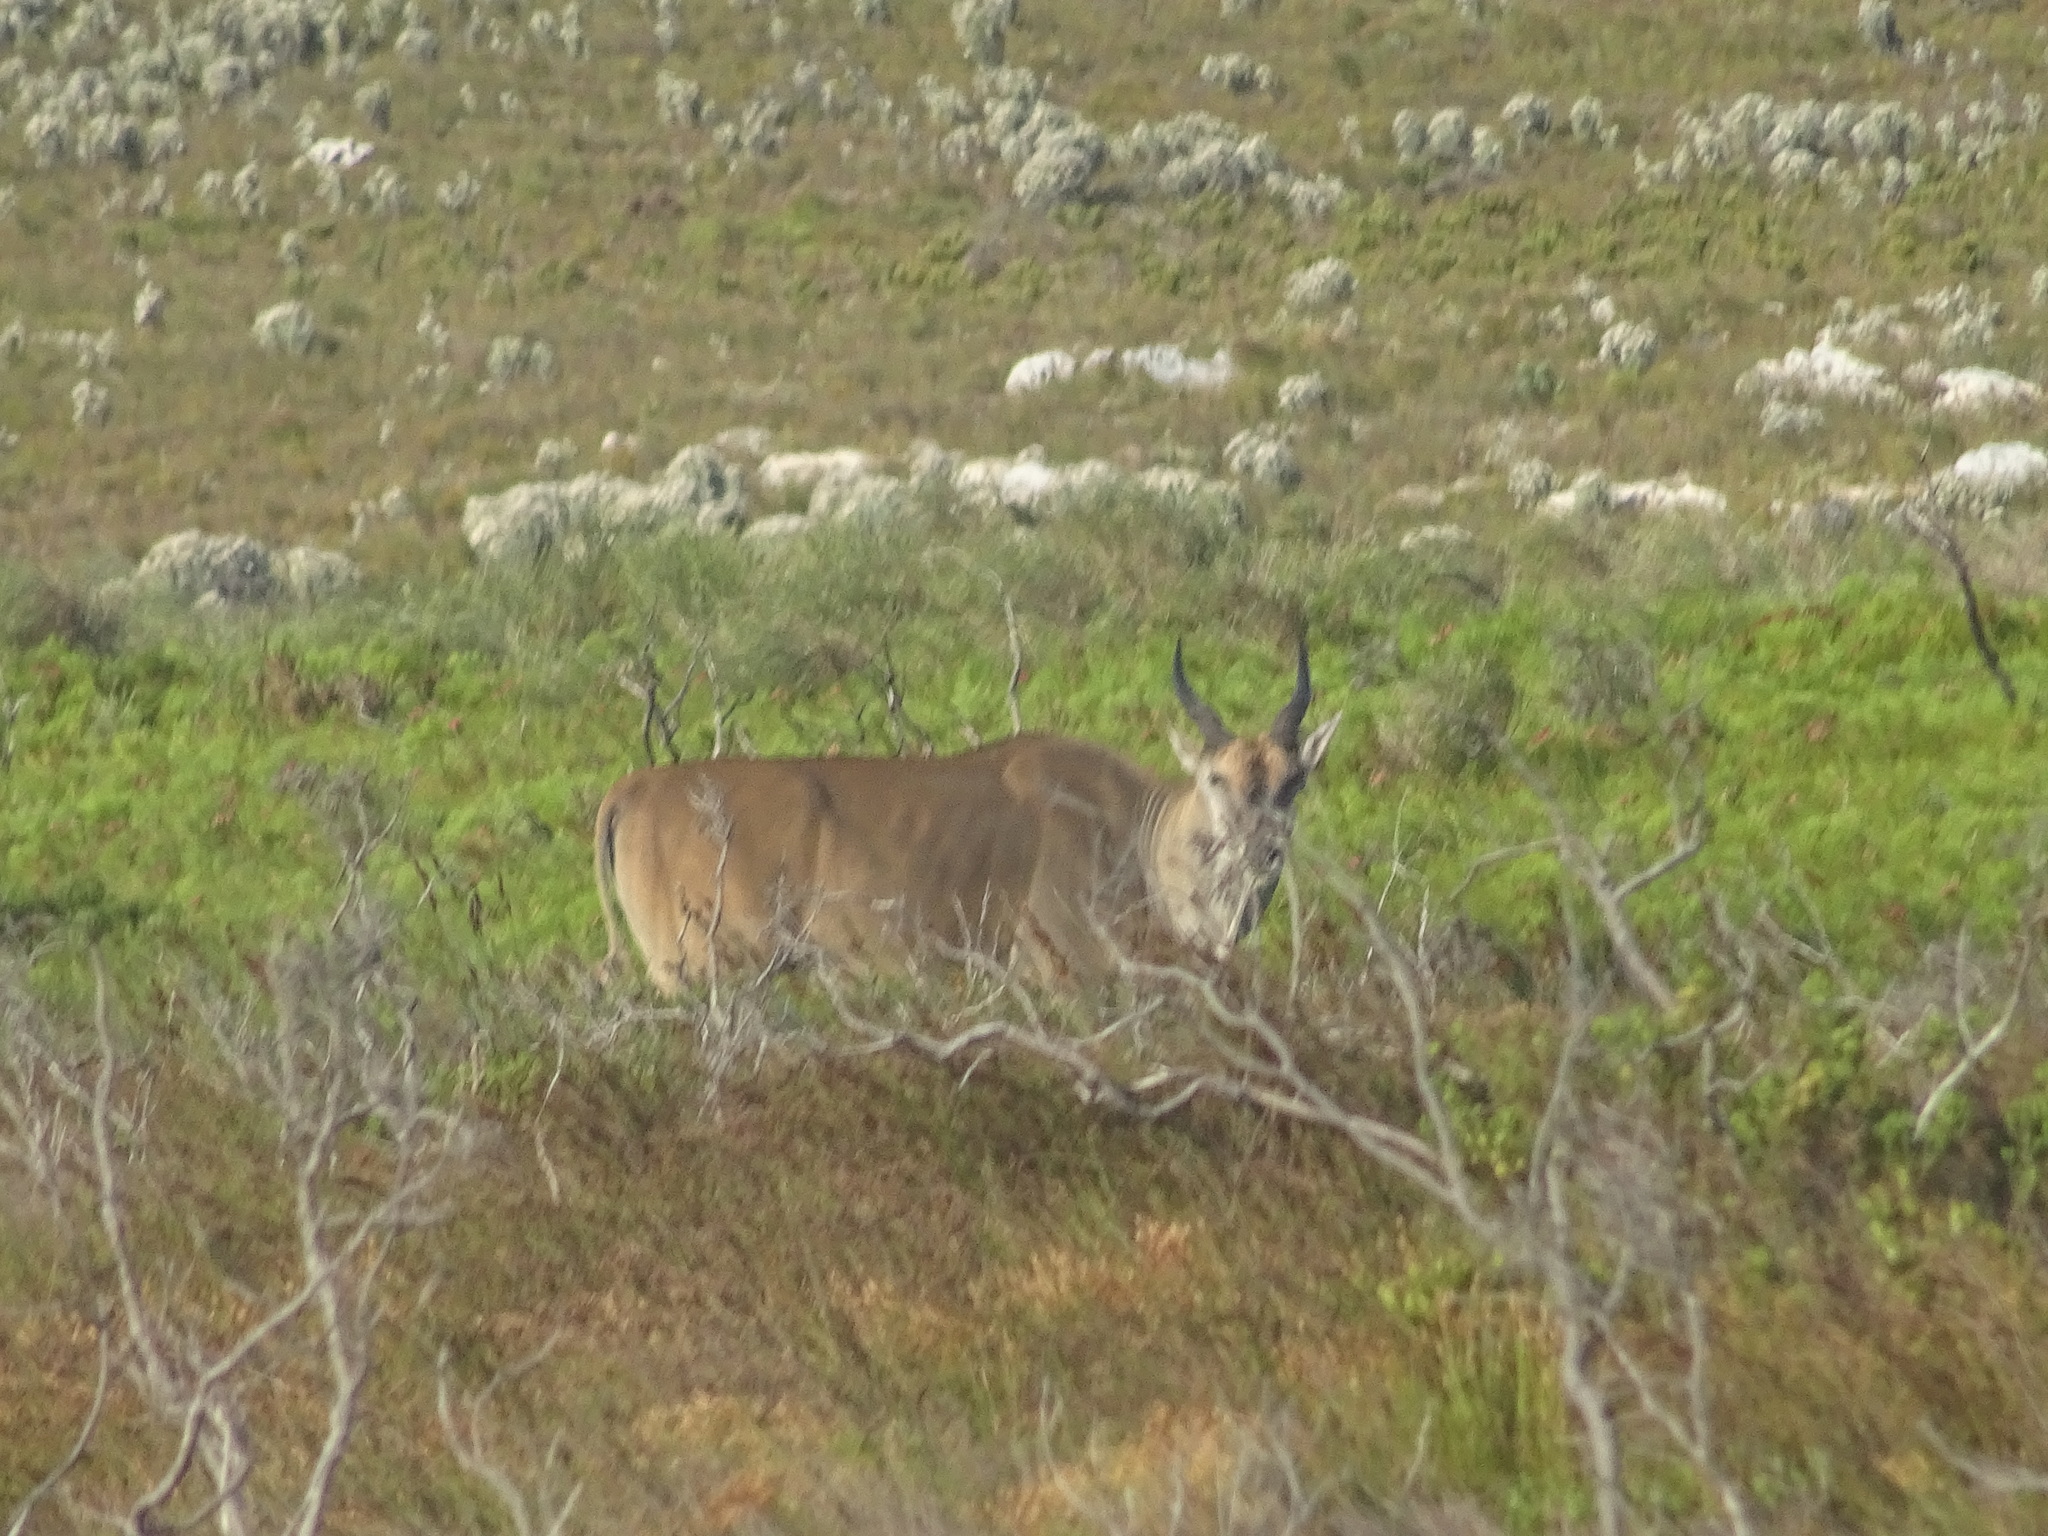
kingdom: Animalia
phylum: Chordata
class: Mammalia
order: Artiodactyla
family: Bovidae
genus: Taurotragus
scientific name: Taurotragus oryx
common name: Common eland
